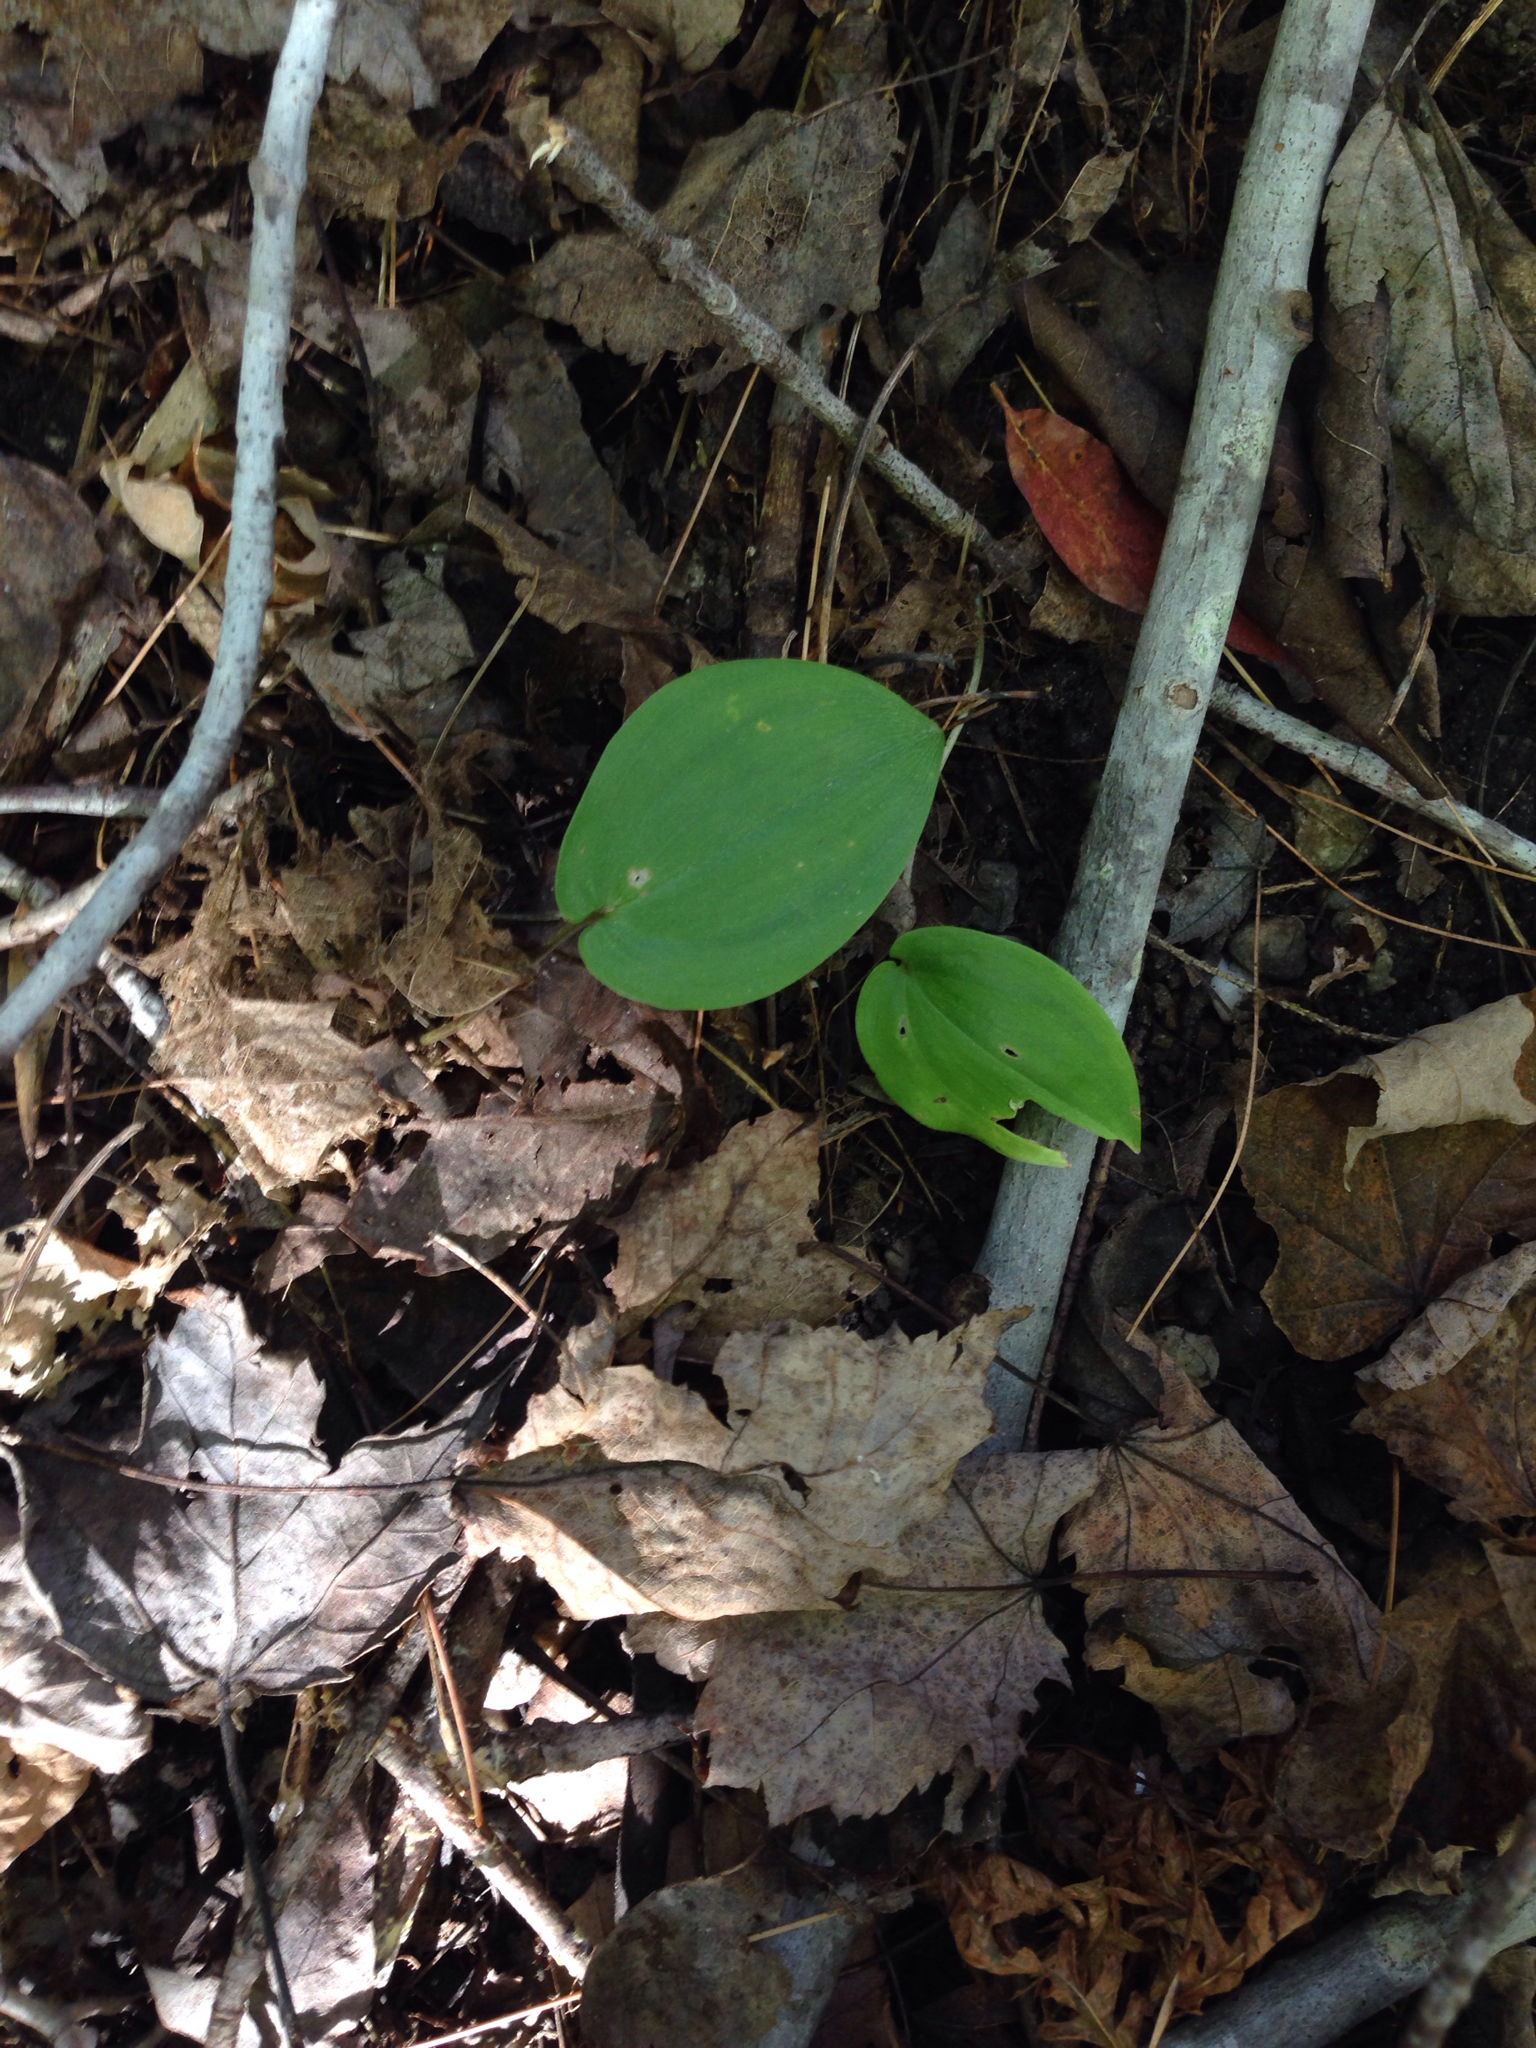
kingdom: Plantae
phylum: Tracheophyta
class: Liliopsida
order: Asparagales
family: Asparagaceae
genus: Maianthemum
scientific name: Maianthemum canadense
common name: False lily-of-the-valley
